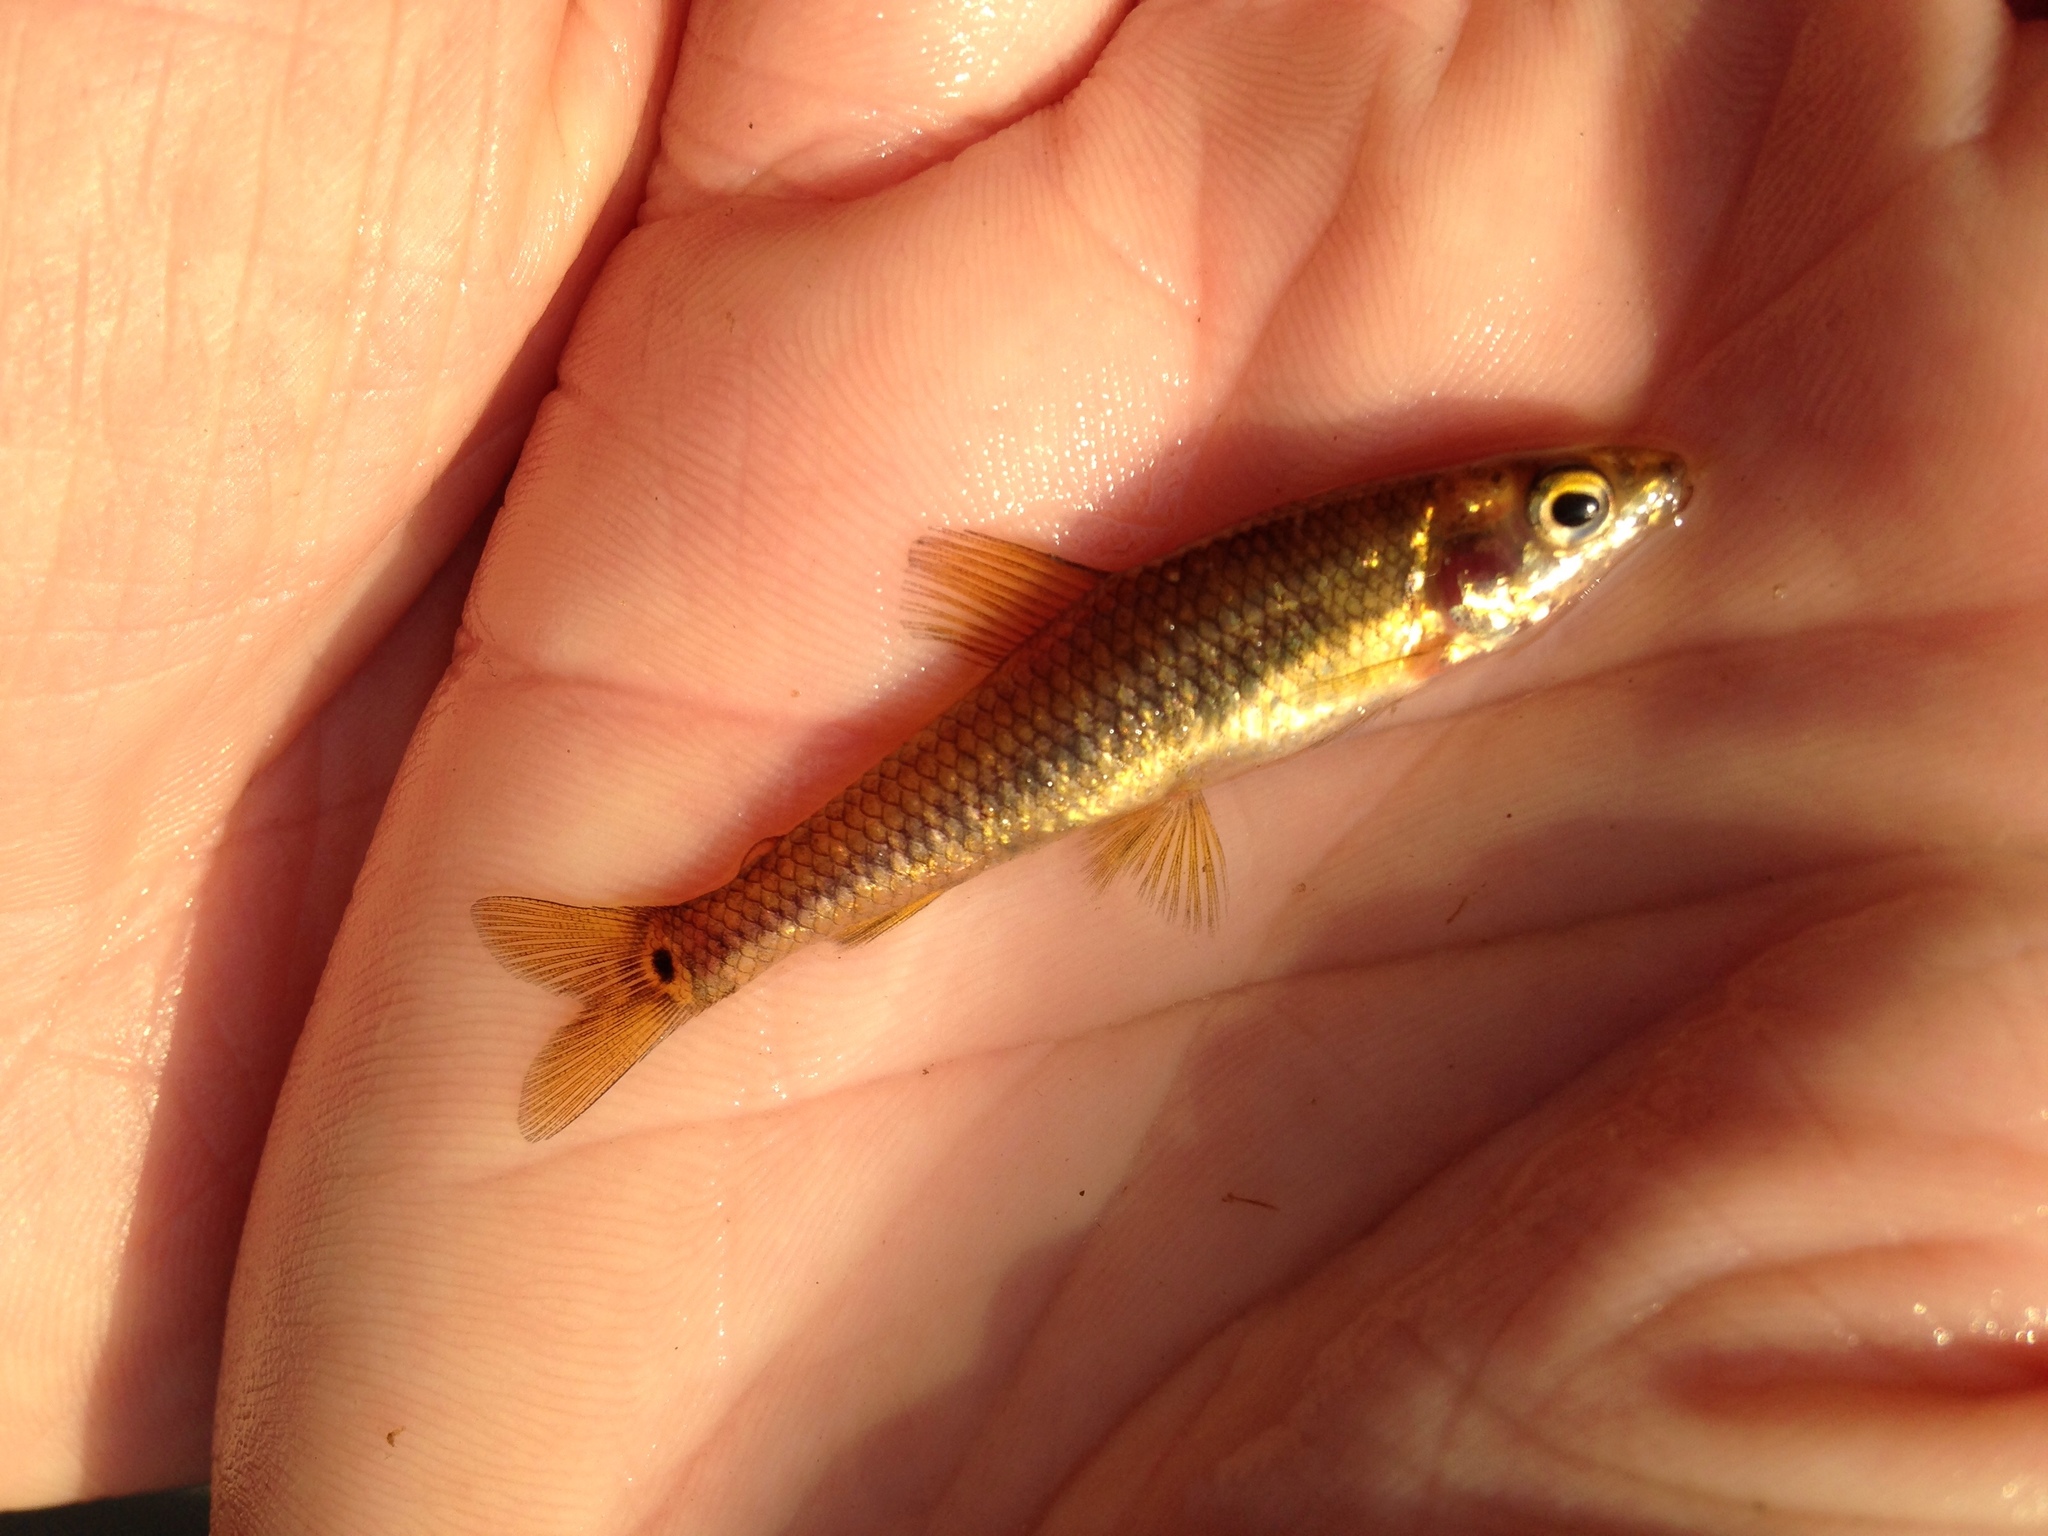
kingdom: Animalia
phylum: Chordata
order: Characiformes
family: Distichodontidae
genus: Nannocharax
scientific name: Nannocharax multifasciatus
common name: Multibar citharine
